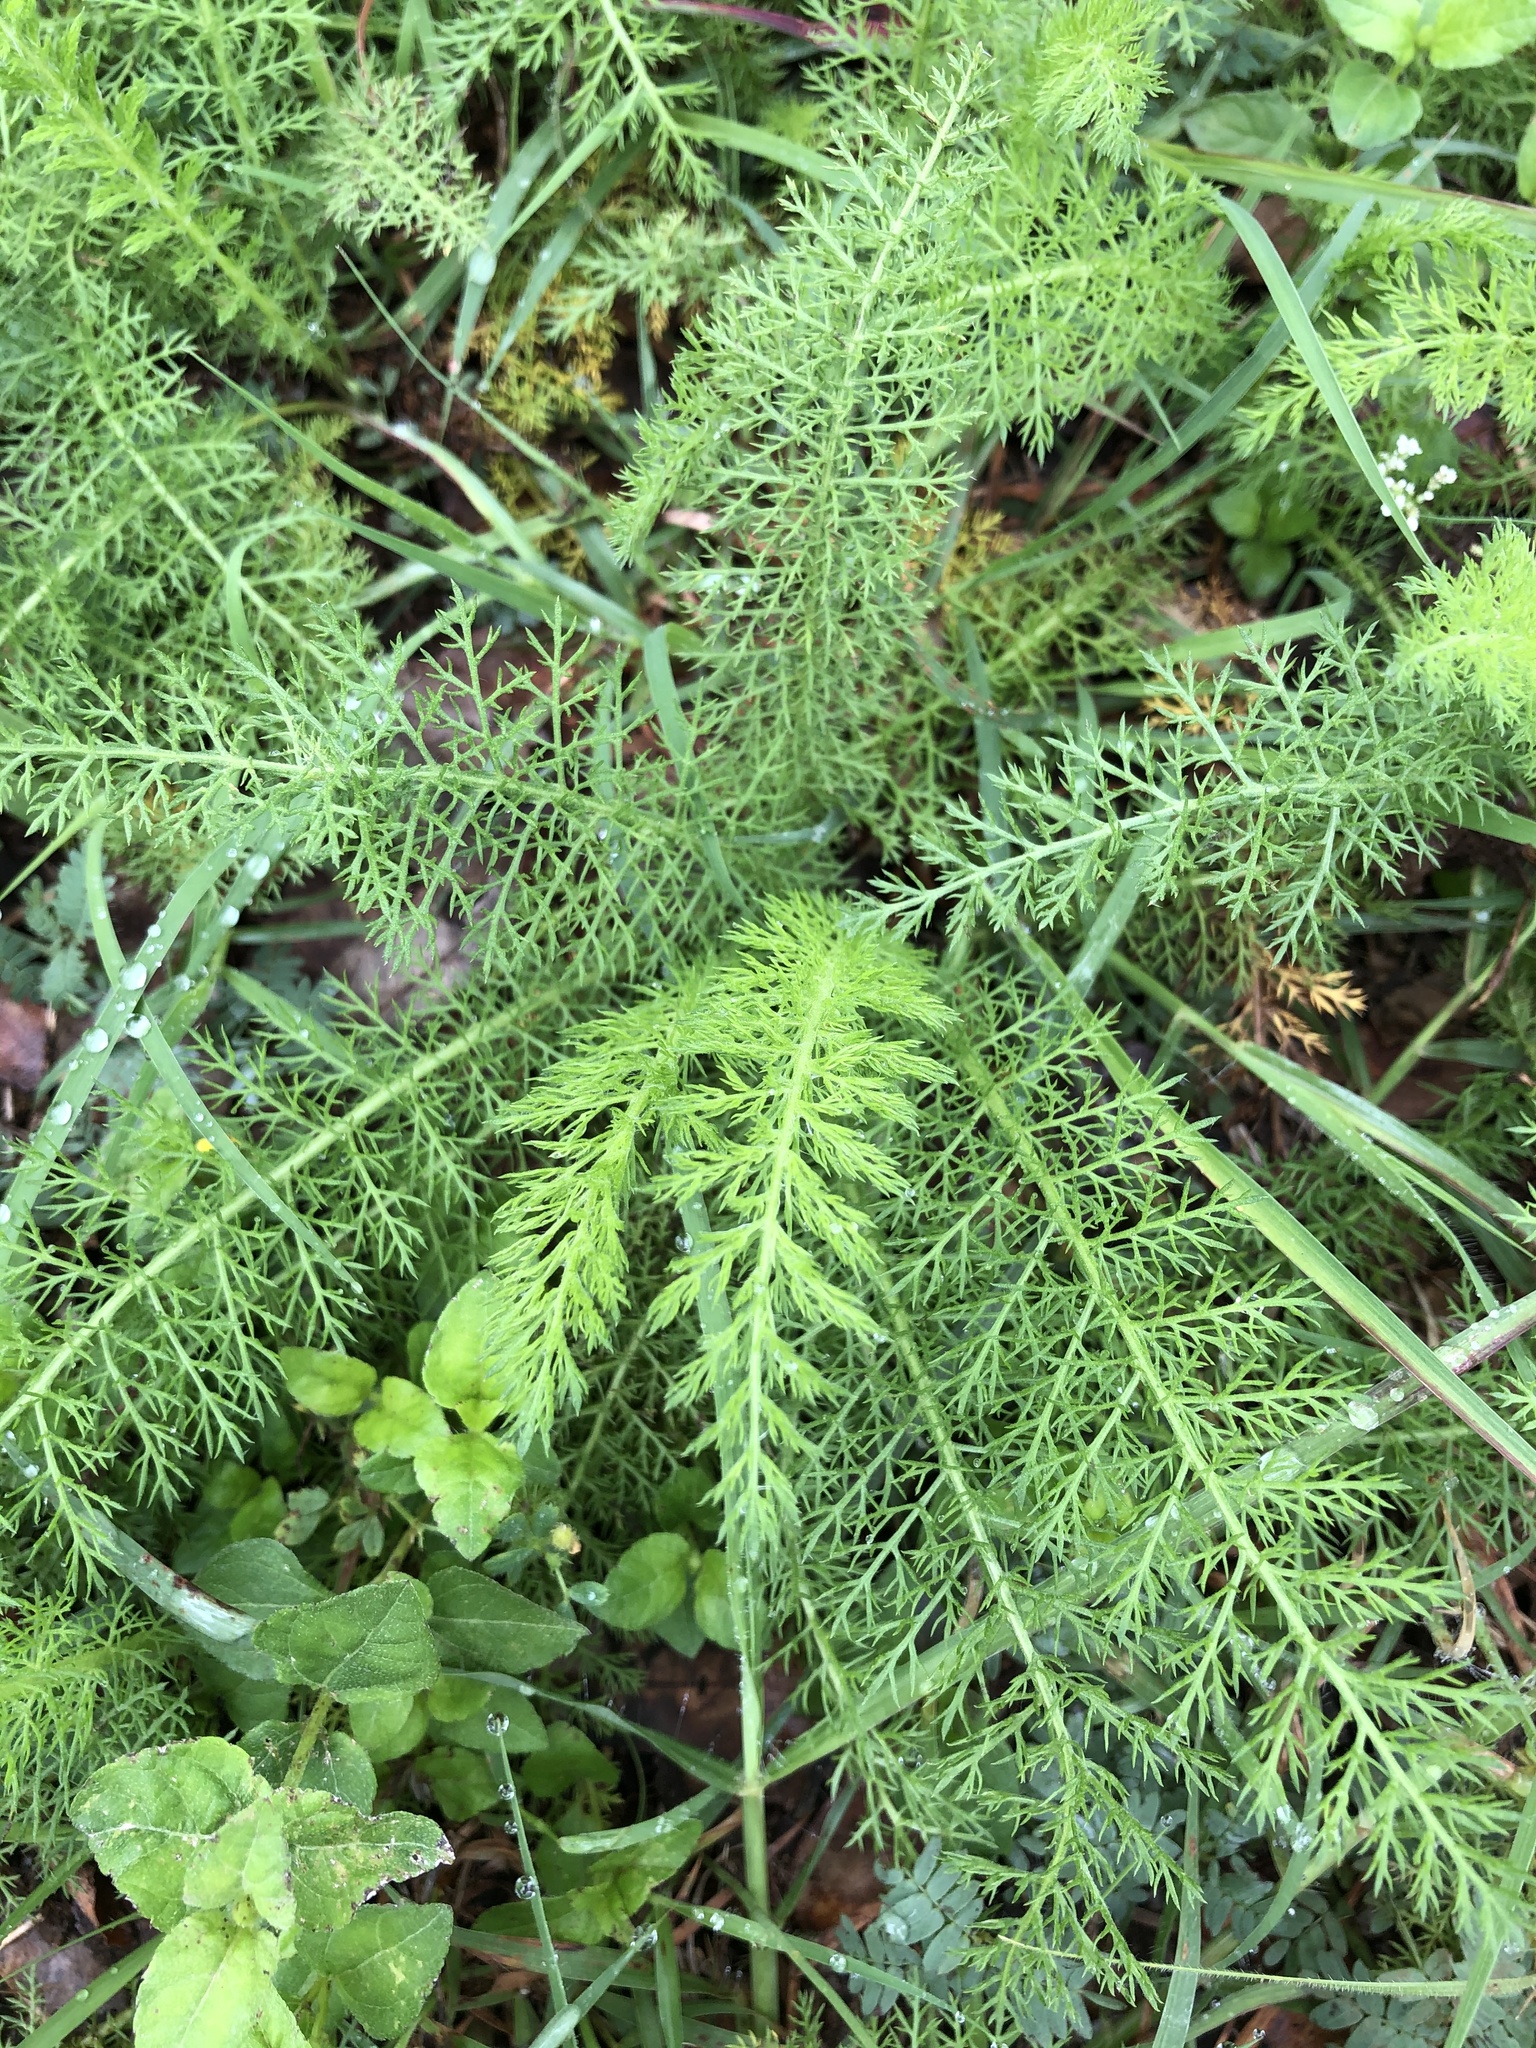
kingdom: Plantae
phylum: Tracheophyta
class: Magnoliopsida
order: Asterales
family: Asteraceae
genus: Achillea
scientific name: Achillea millefolium
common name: Yarrow
